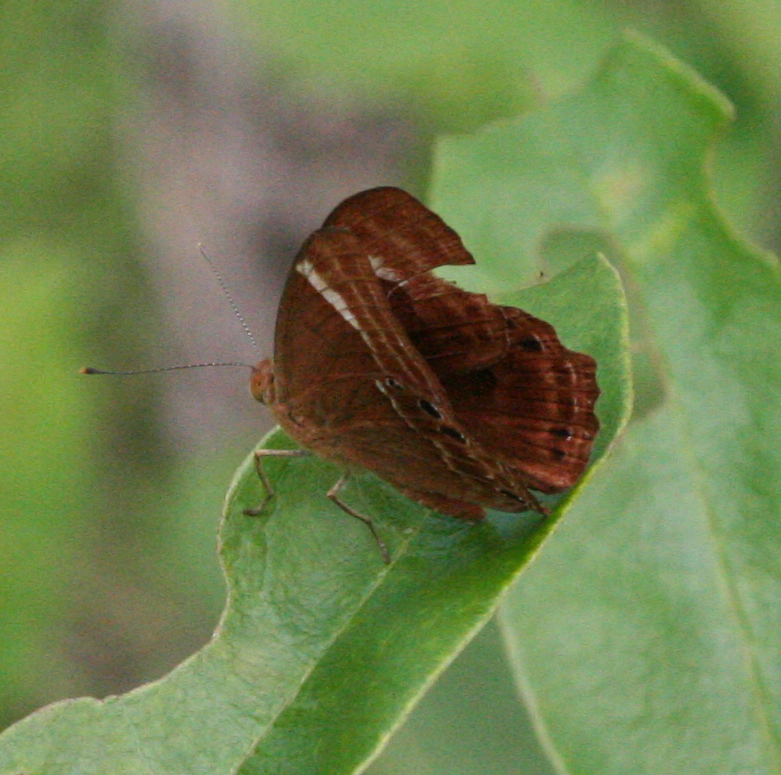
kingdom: Animalia
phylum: Arthropoda
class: Insecta
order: Lepidoptera
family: Lycaenidae
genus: Abisara
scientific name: Abisara neavei
